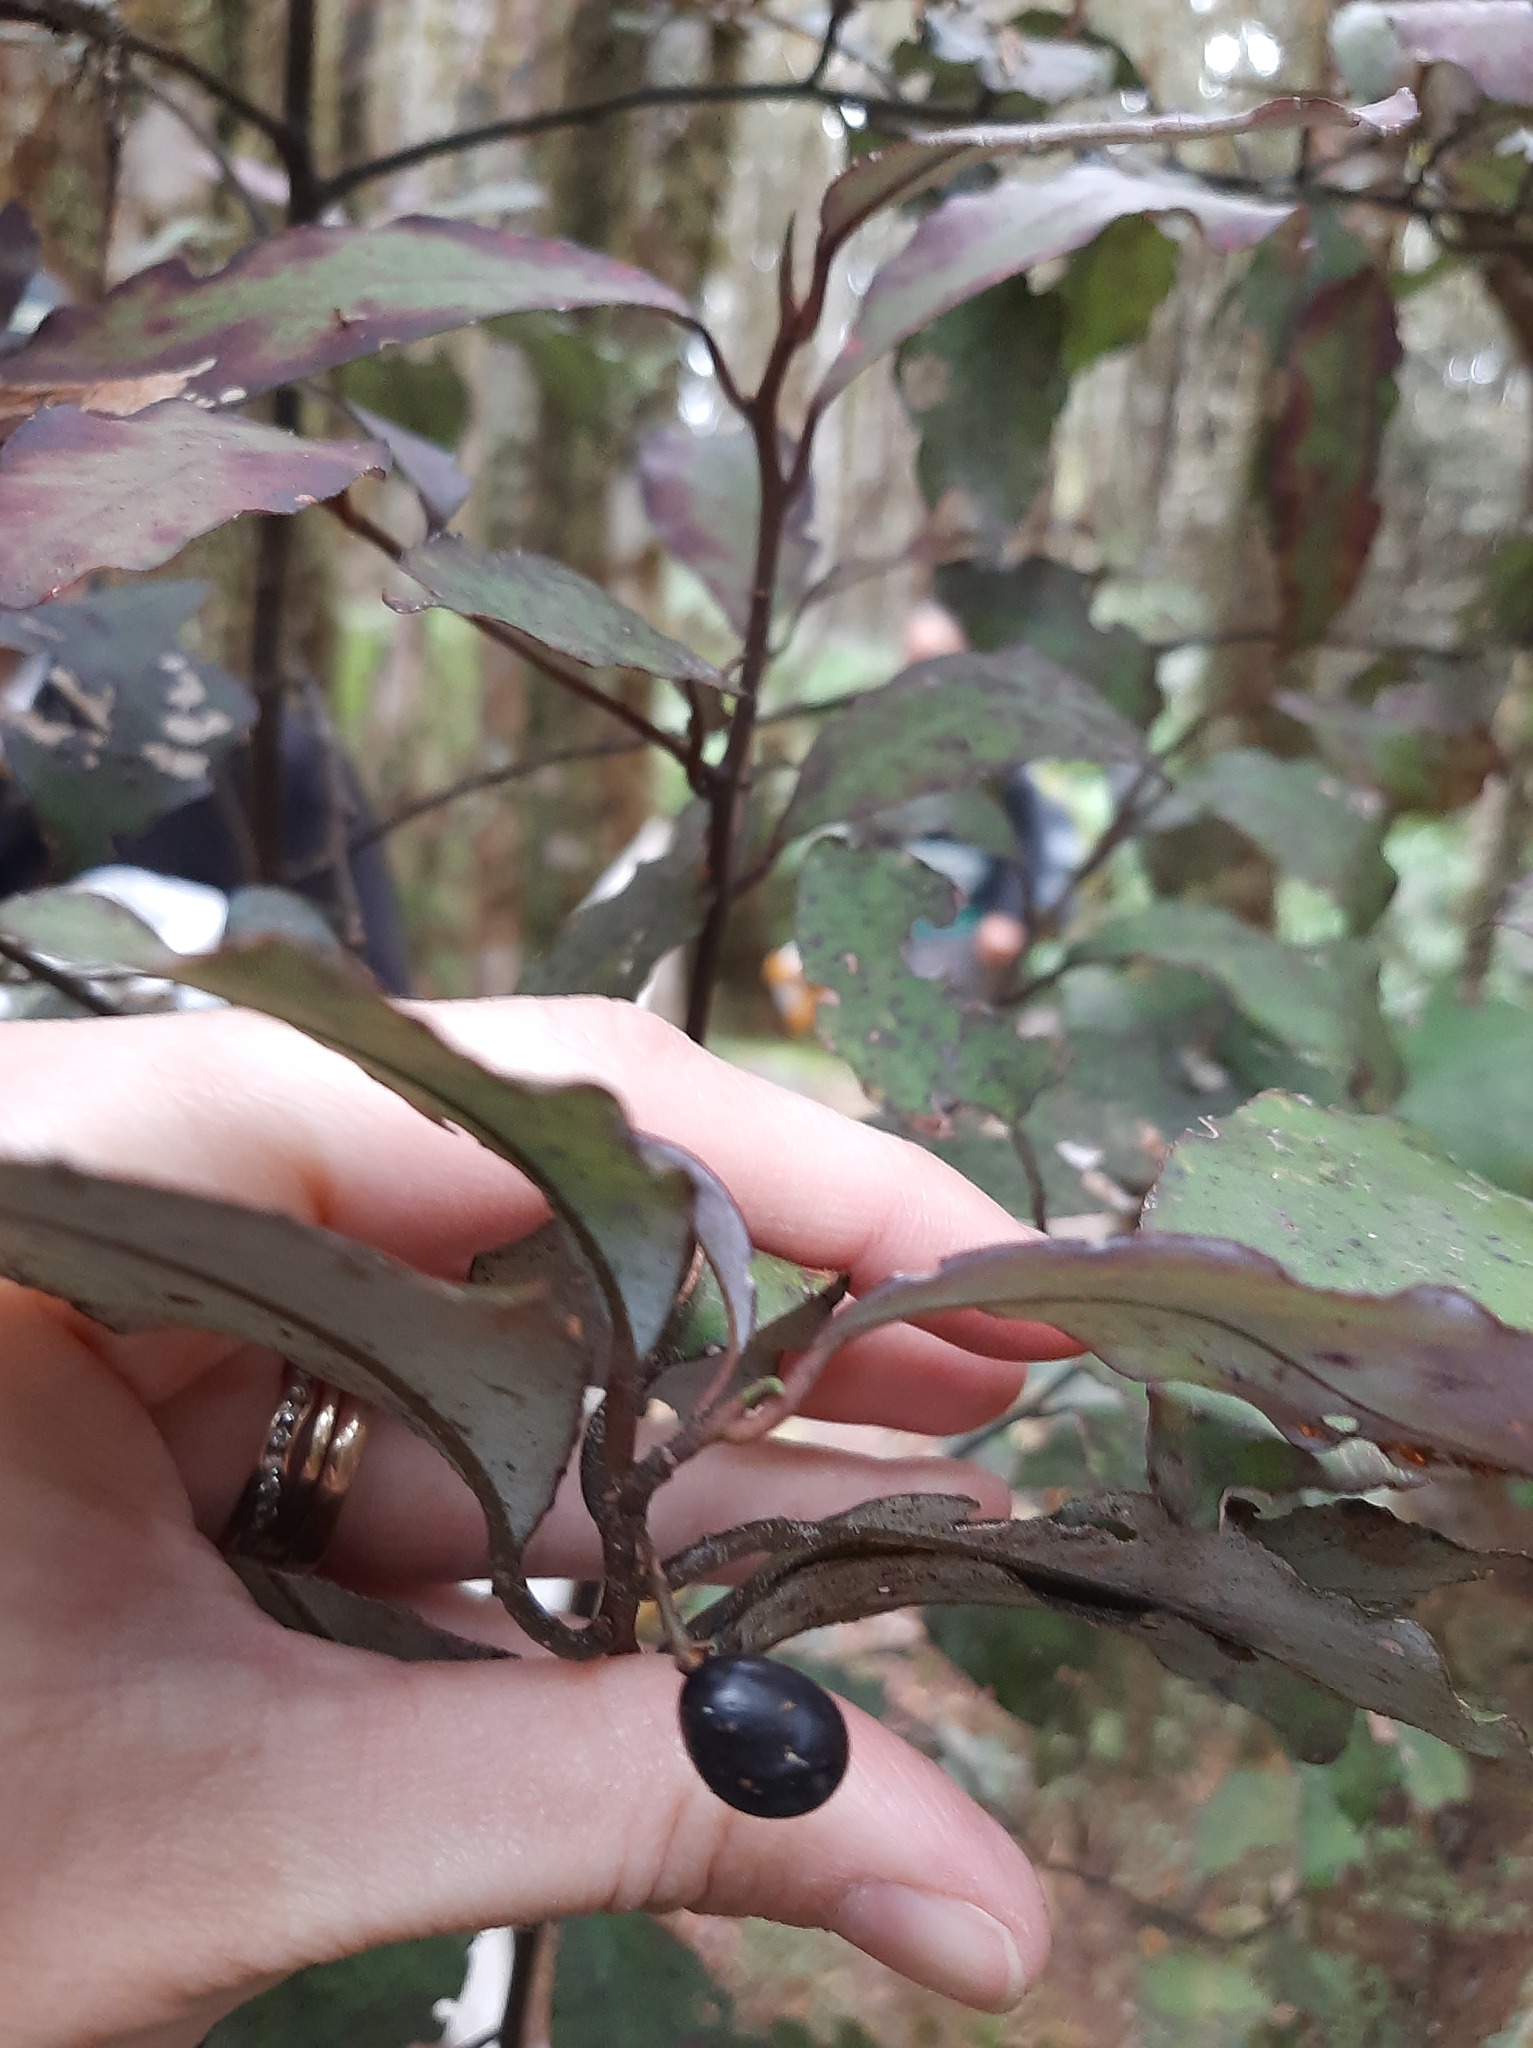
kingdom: Plantae
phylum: Tracheophyta
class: Magnoliopsida
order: Canellales
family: Winteraceae
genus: Pseudowintera
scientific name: Pseudowintera colorata
